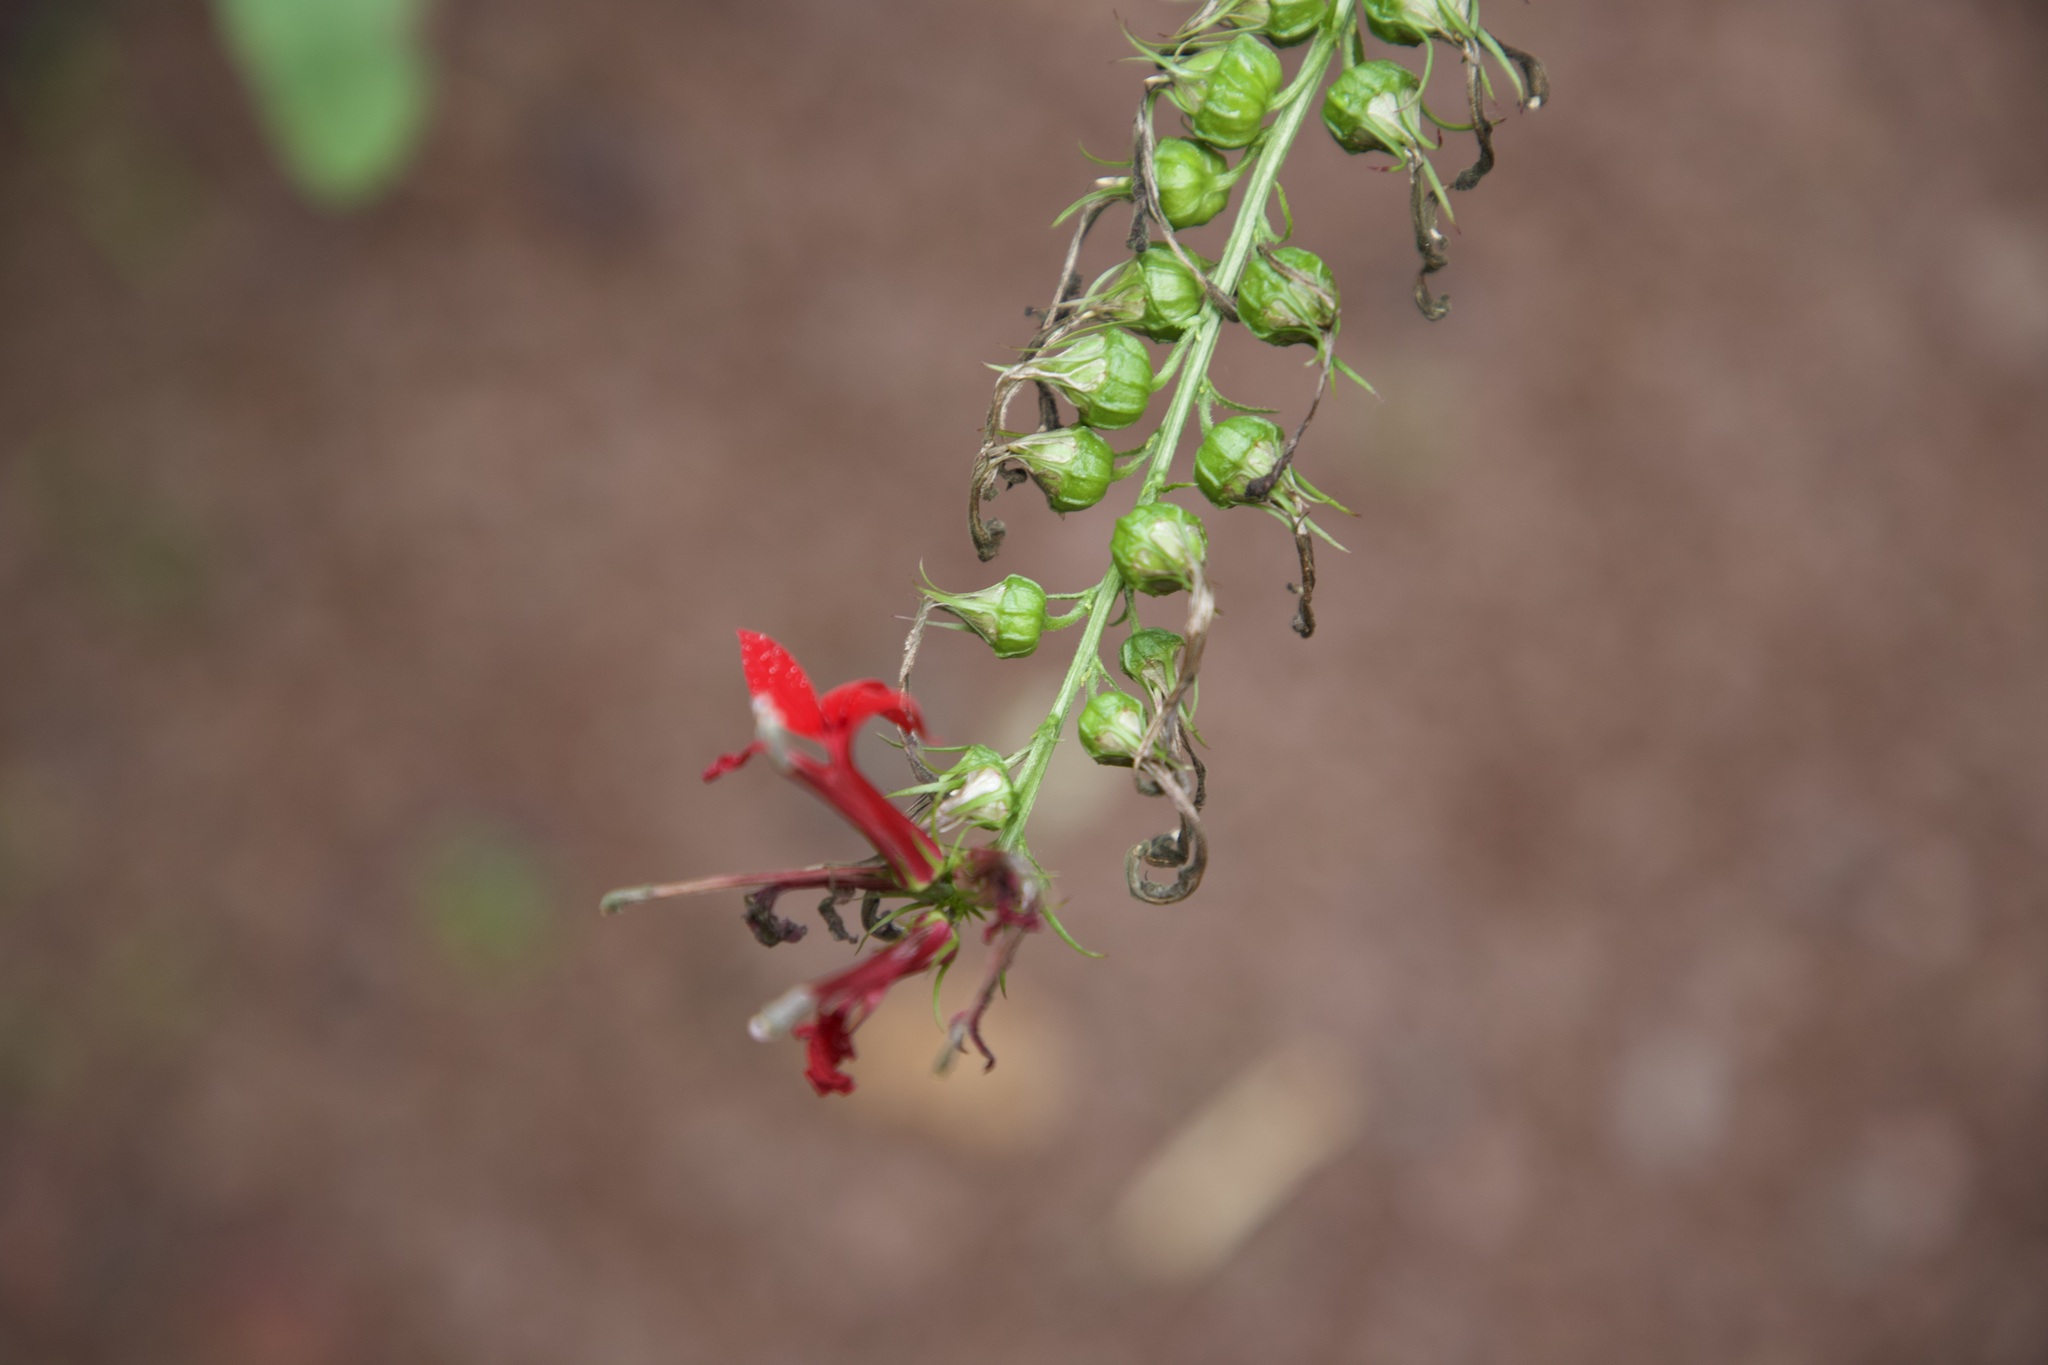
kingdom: Plantae
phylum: Tracheophyta
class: Magnoliopsida
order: Asterales
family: Campanulaceae
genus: Lobelia
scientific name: Lobelia cardinalis
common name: Cardinal flower
